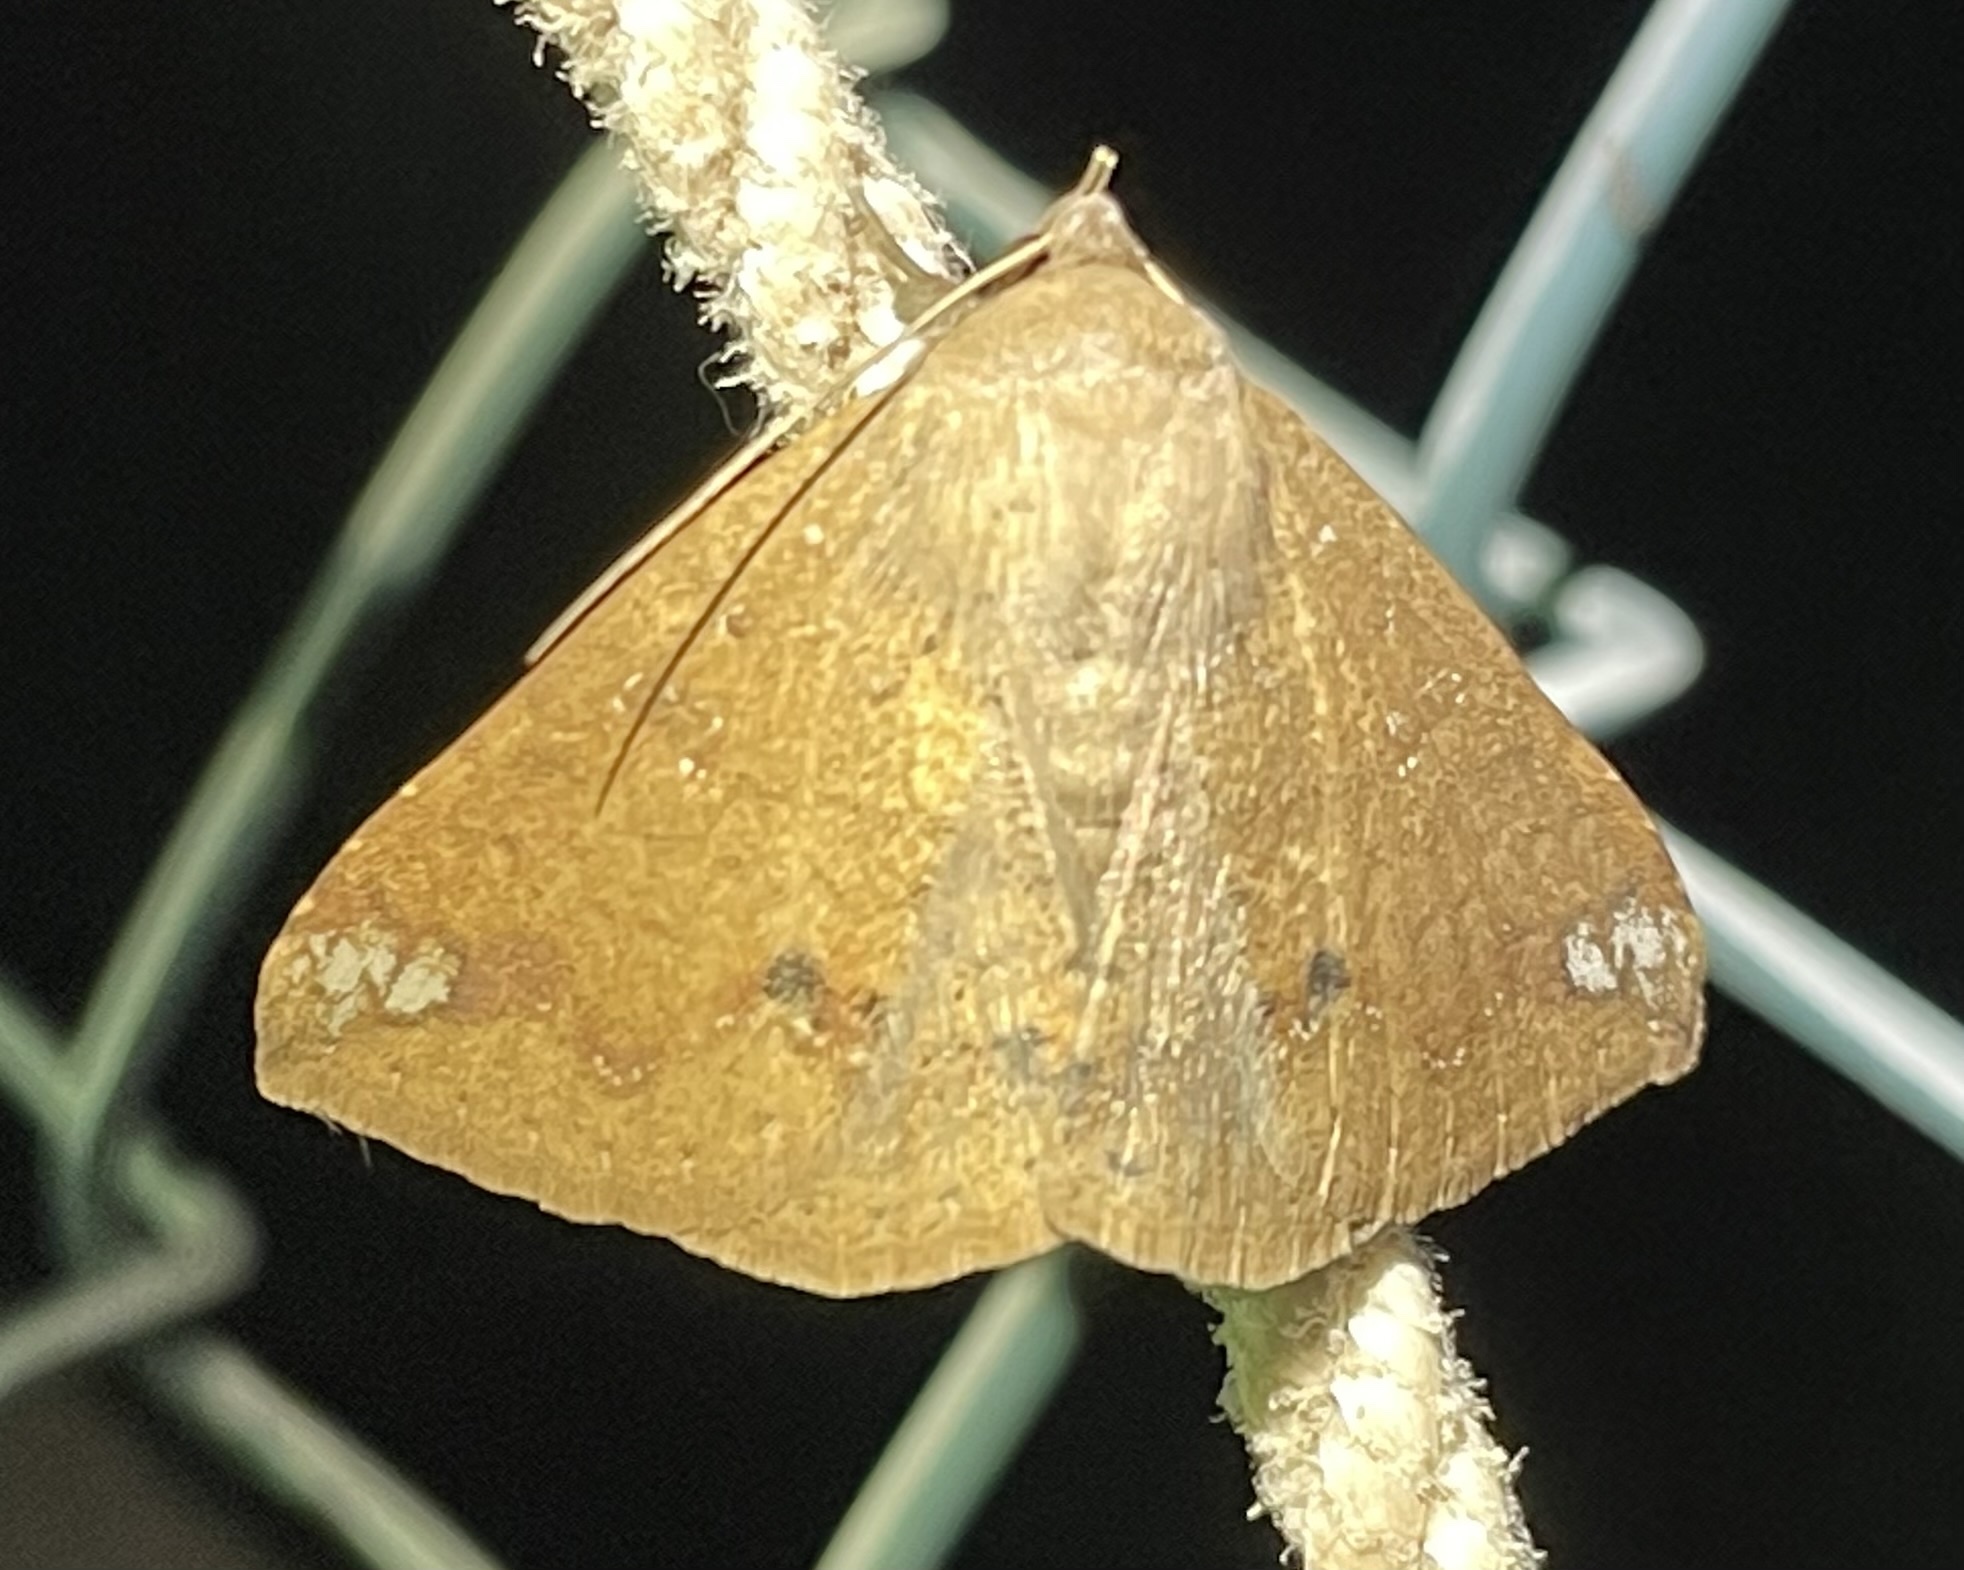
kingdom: Animalia
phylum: Arthropoda
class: Insecta
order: Lepidoptera
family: Erebidae
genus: Ericeia
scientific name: Ericeia inangulata
